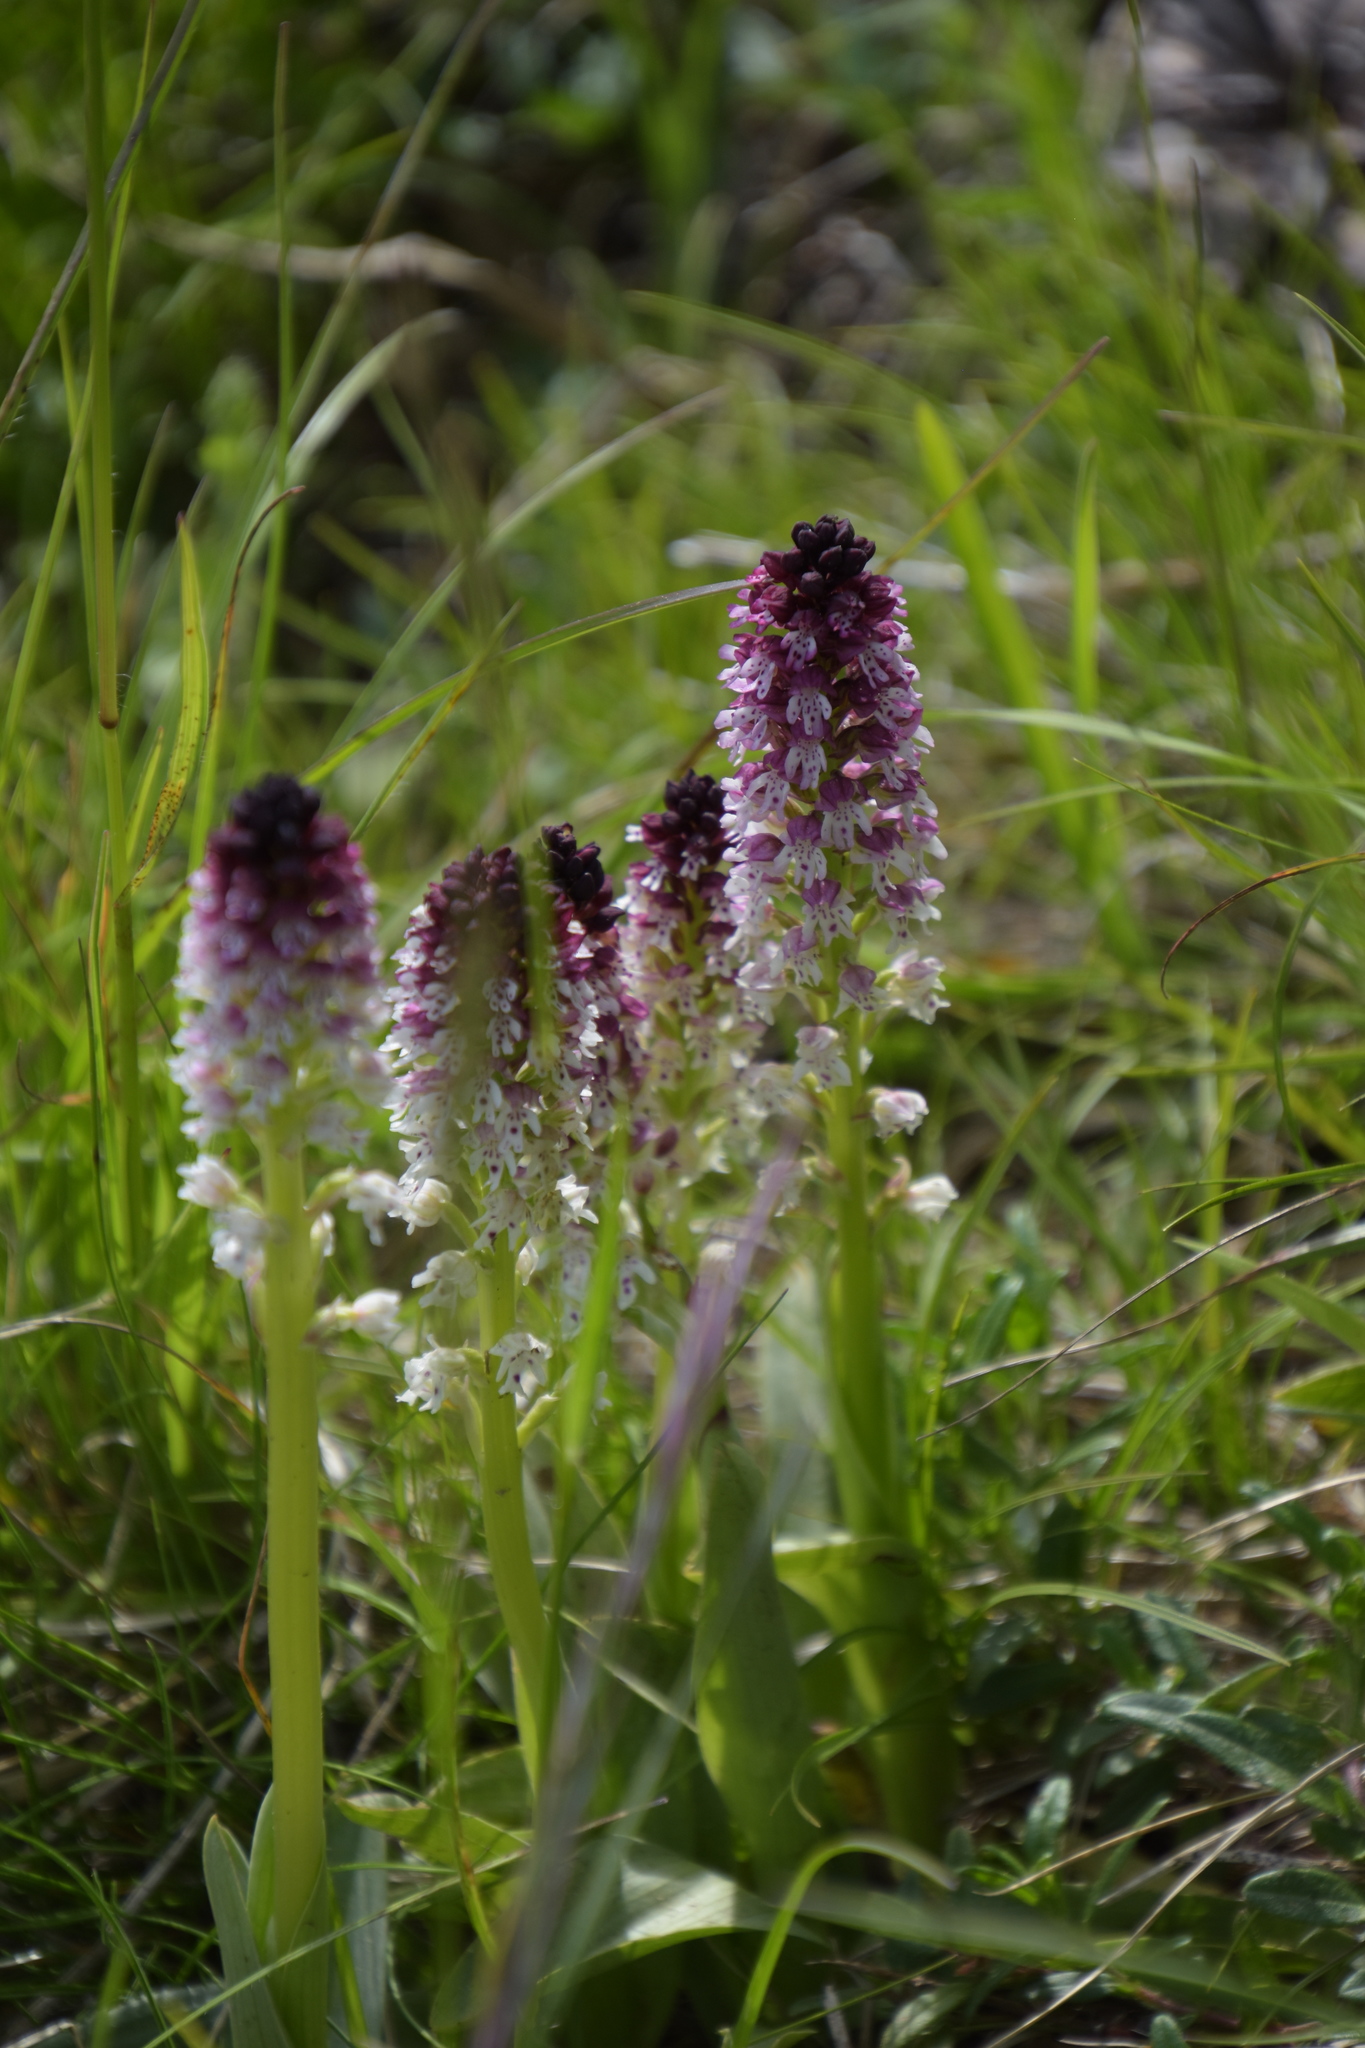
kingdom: Plantae
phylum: Tracheophyta
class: Liliopsida
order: Asparagales
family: Orchidaceae
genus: Neotinea
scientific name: Neotinea ustulata
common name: Burnt orchid
